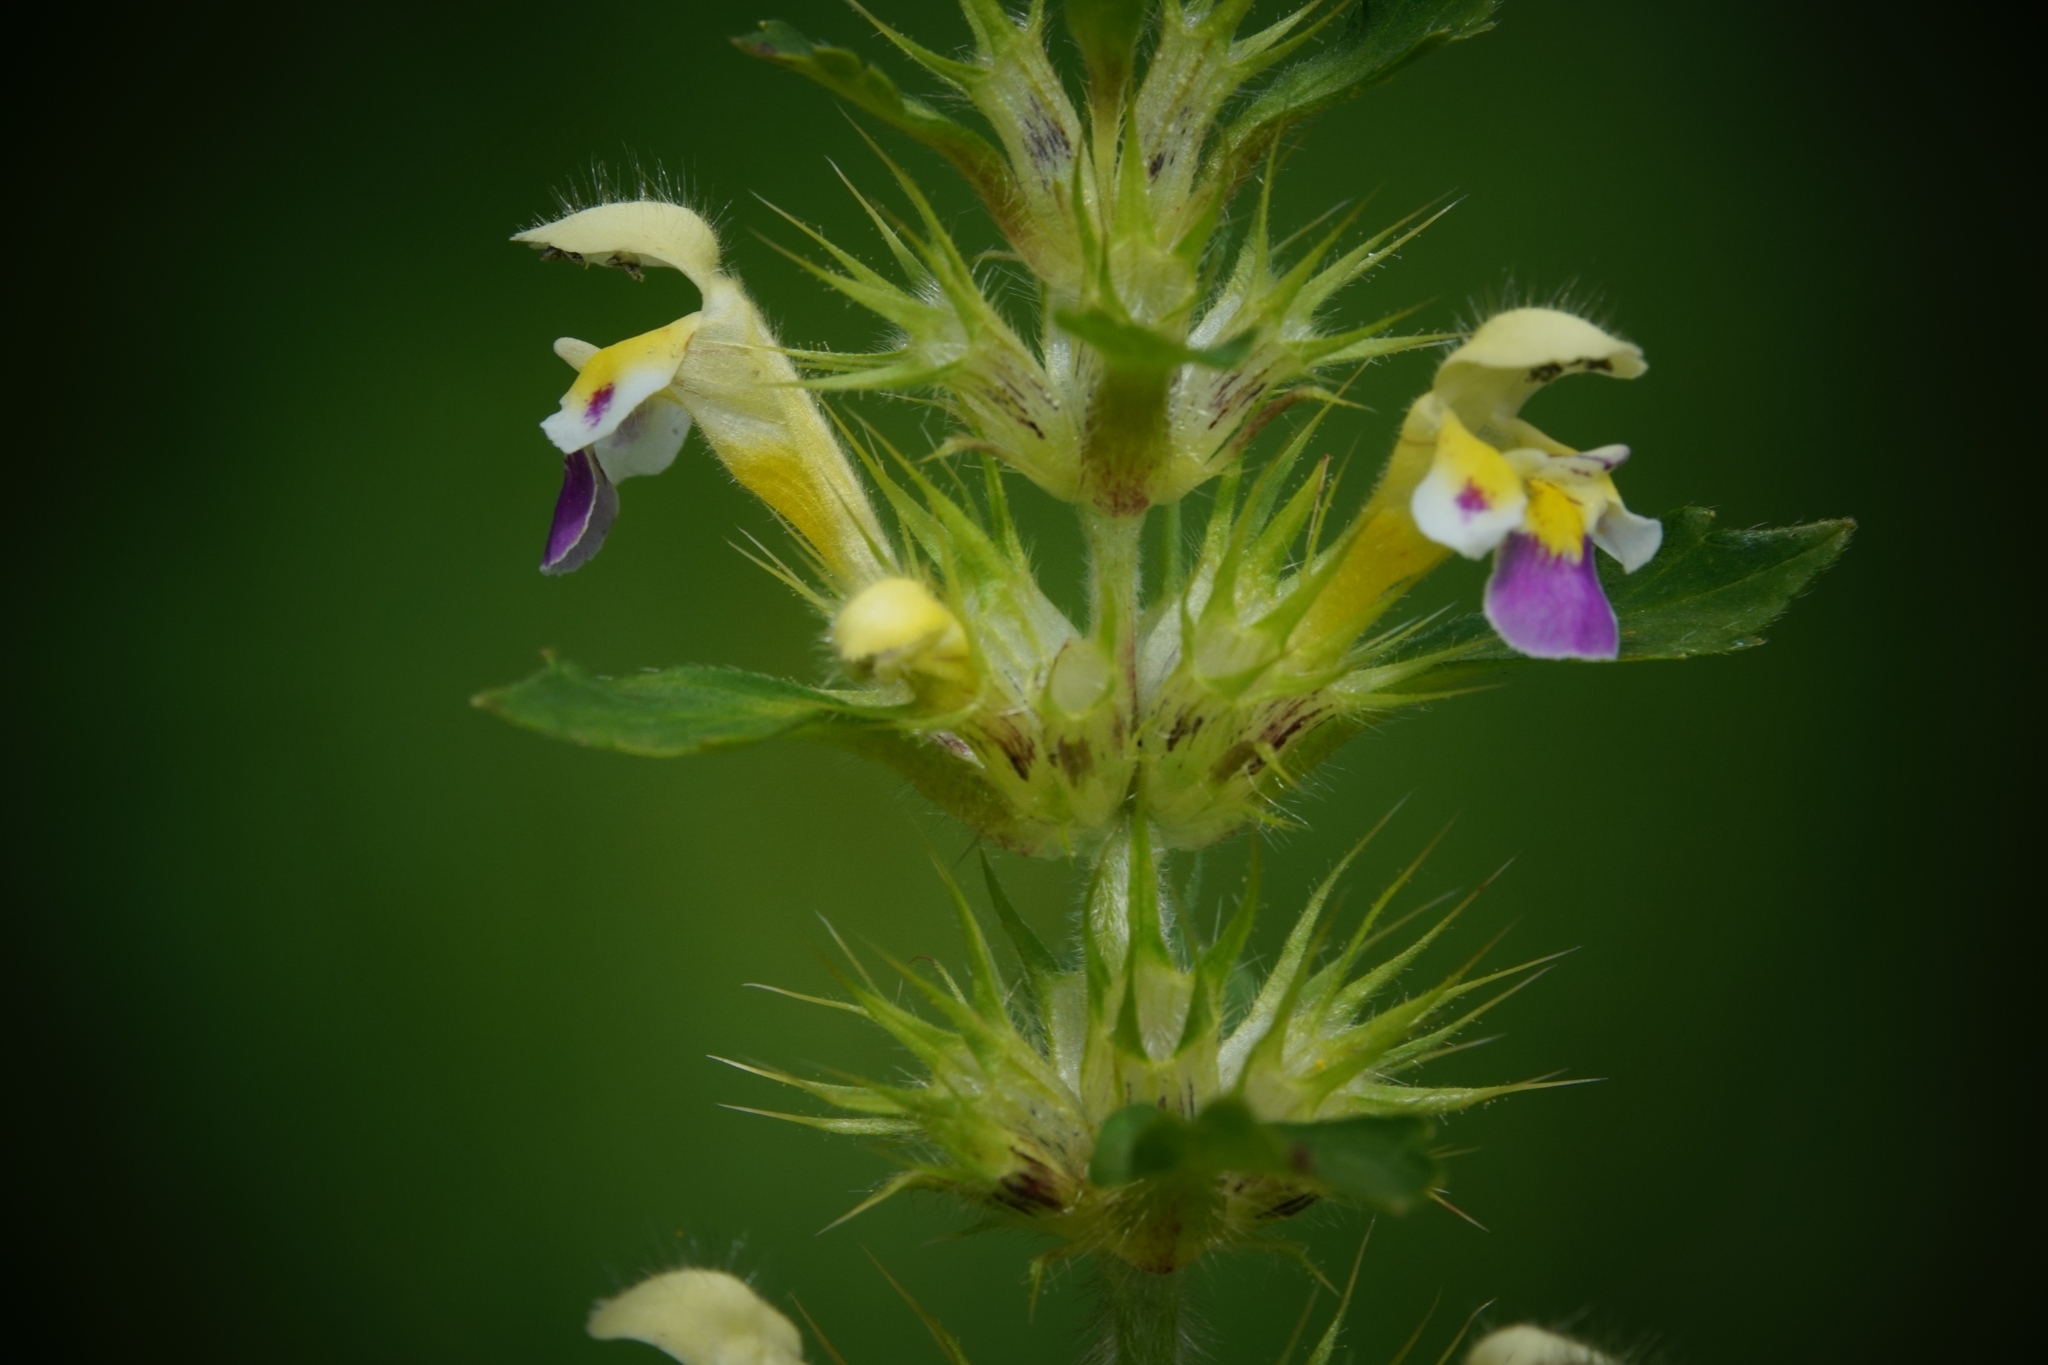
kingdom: Plantae
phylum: Tracheophyta
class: Magnoliopsida
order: Lamiales
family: Lamiaceae
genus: Galeopsis
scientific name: Galeopsis speciosa
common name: Large-flowered hemp-nettle
